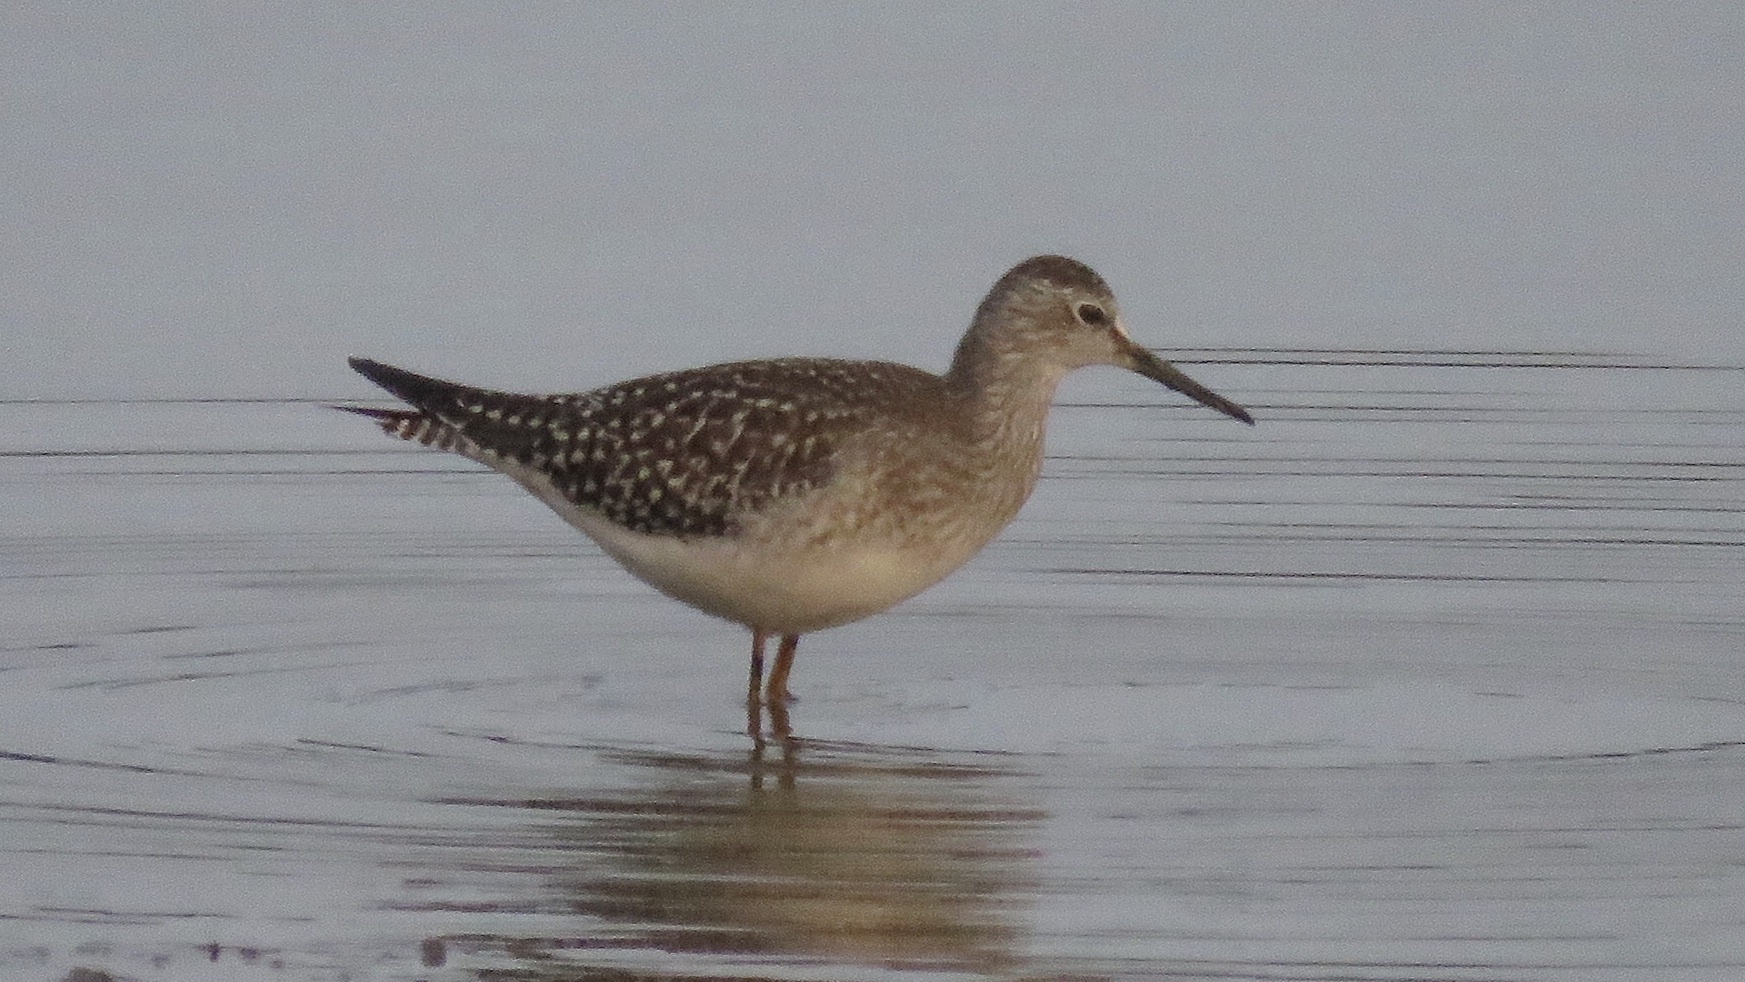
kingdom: Animalia
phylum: Chordata
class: Aves
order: Charadriiformes
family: Scolopacidae
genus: Tringa
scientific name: Tringa flavipes
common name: Lesser yellowlegs
